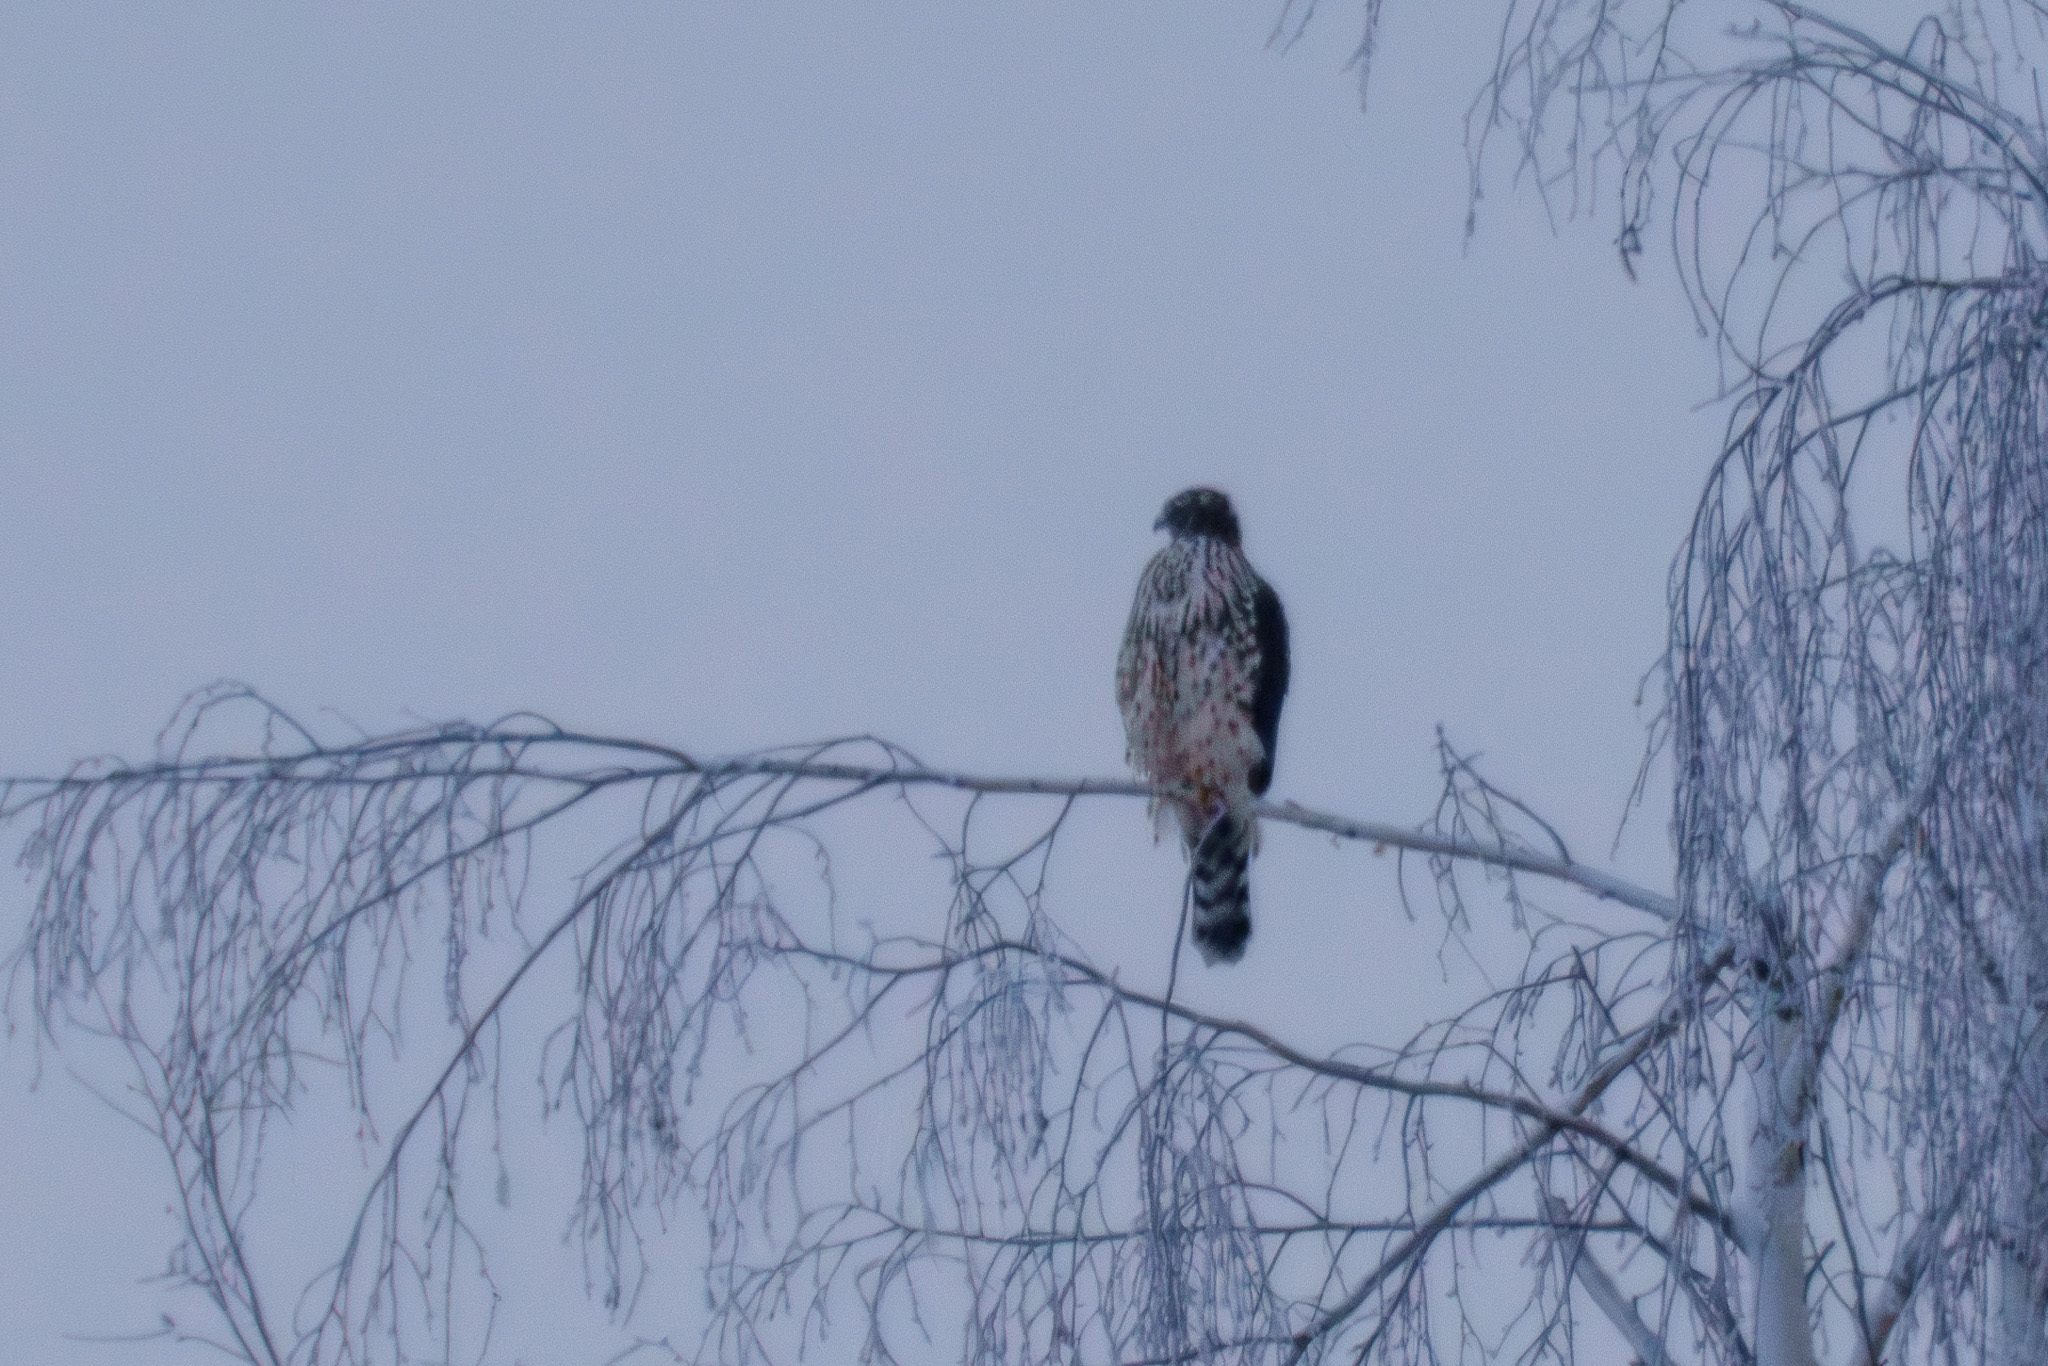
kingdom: Animalia
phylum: Chordata
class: Aves
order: Accipitriformes
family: Accipitridae
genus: Accipiter
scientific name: Accipiter gentilis
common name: Northern goshawk
